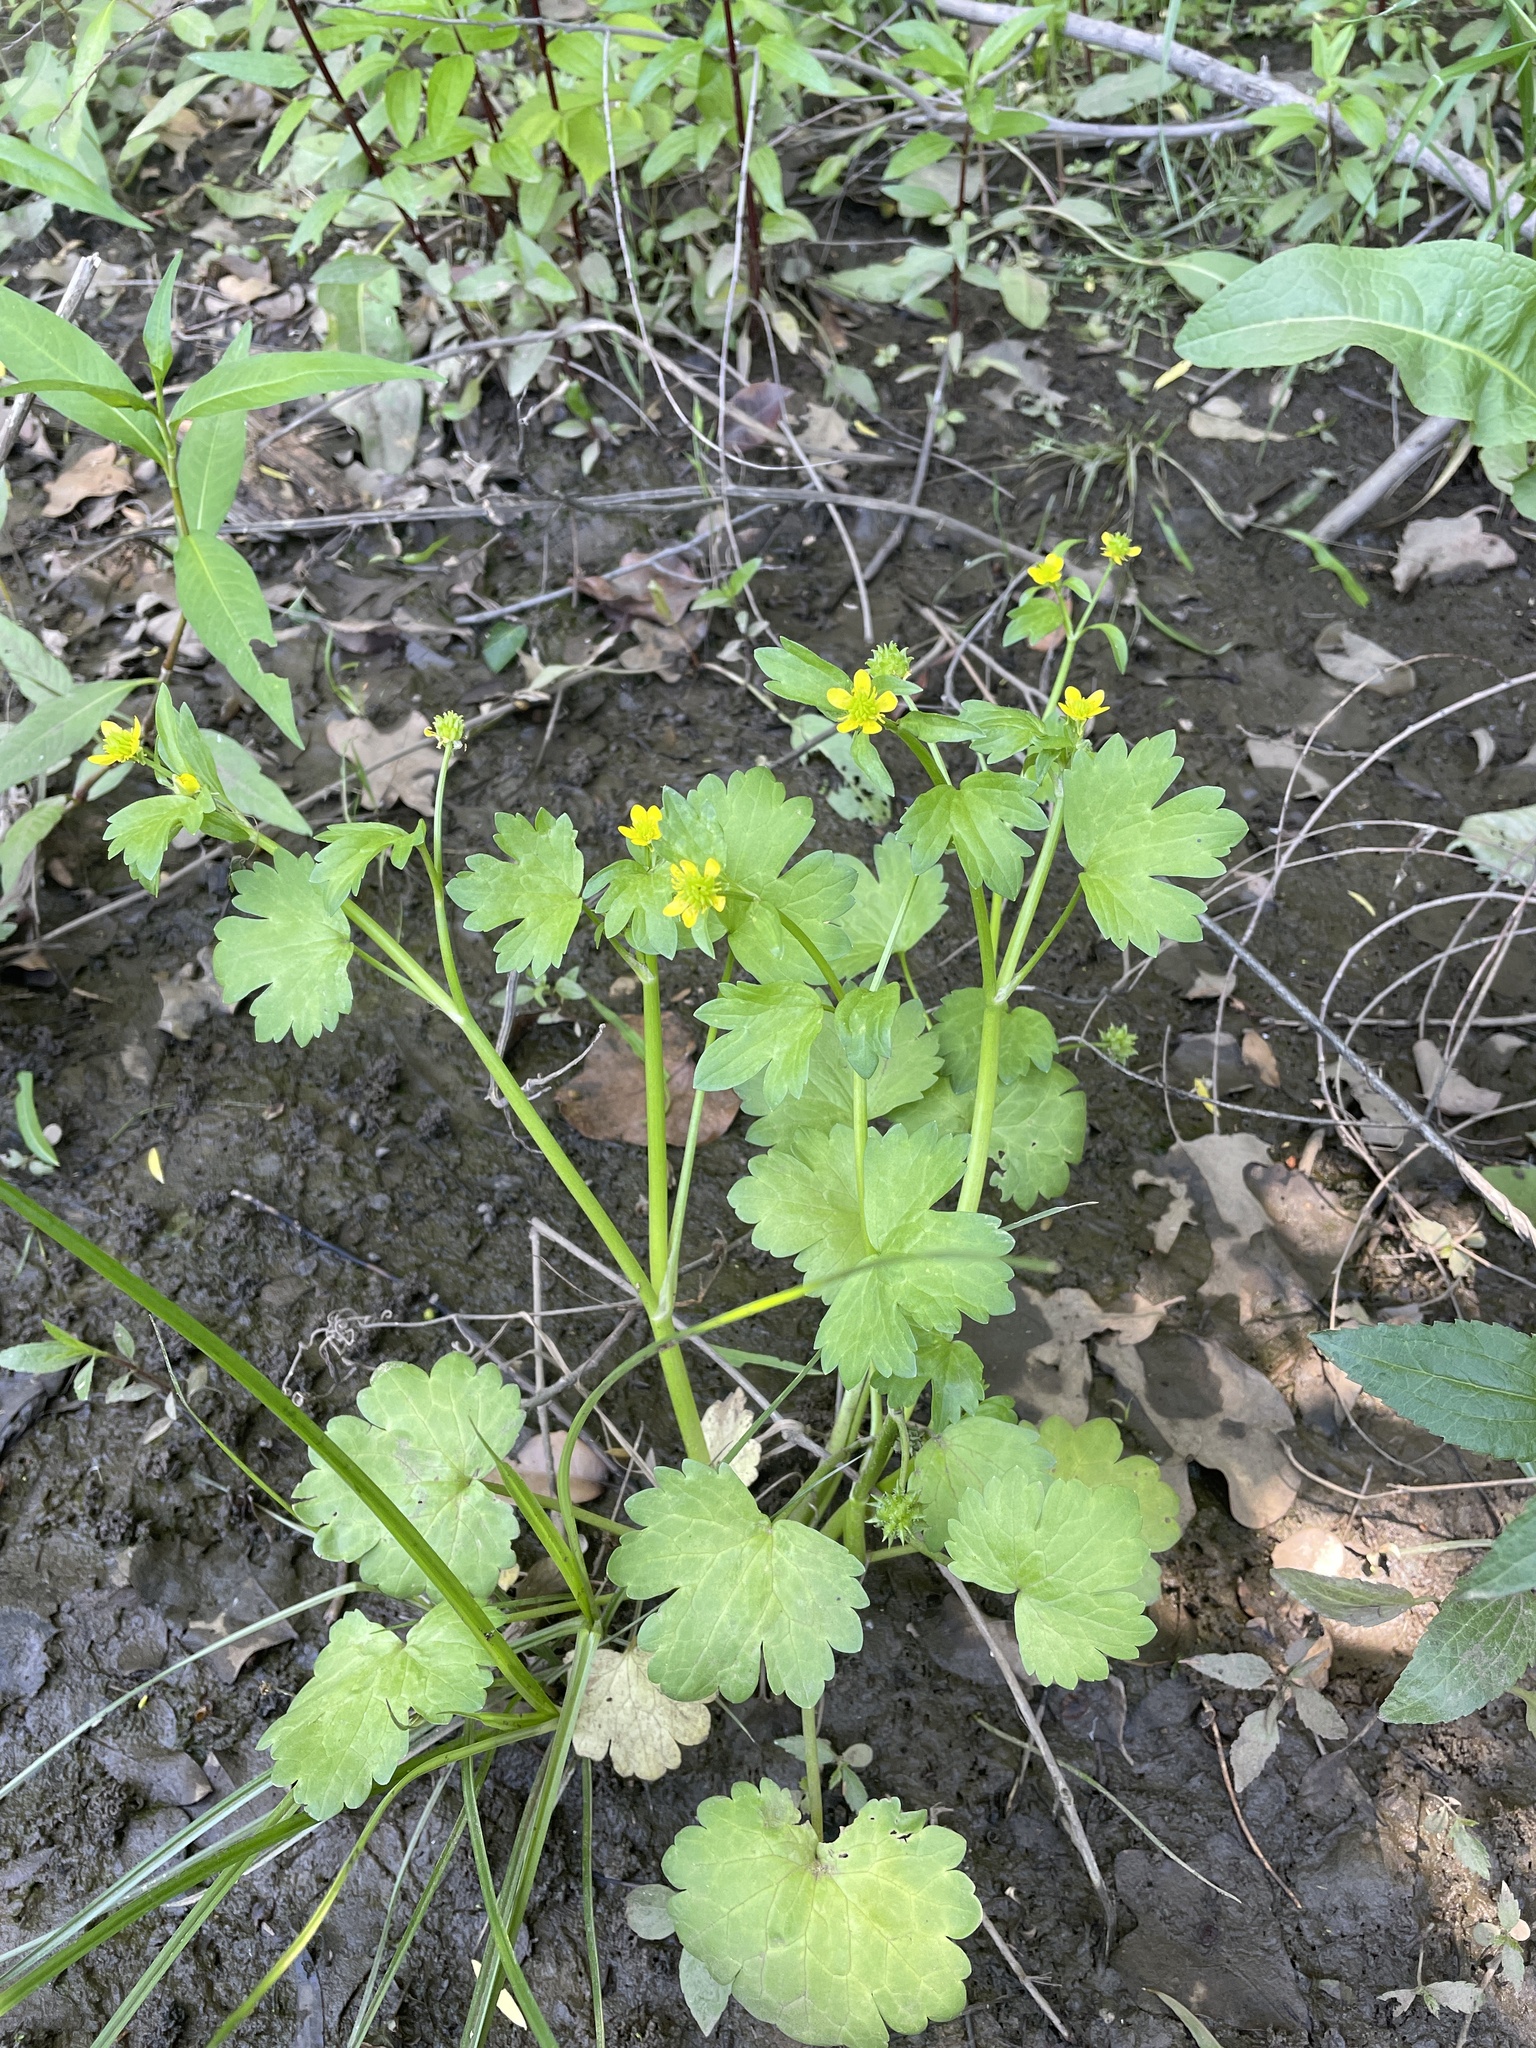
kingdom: Plantae
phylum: Tracheophyta
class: Magnoliopsida
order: Ranunculales
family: Ranunculaceae
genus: Ranunculus
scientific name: Ranunculus muricatus
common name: Rough-fruited buttercup
